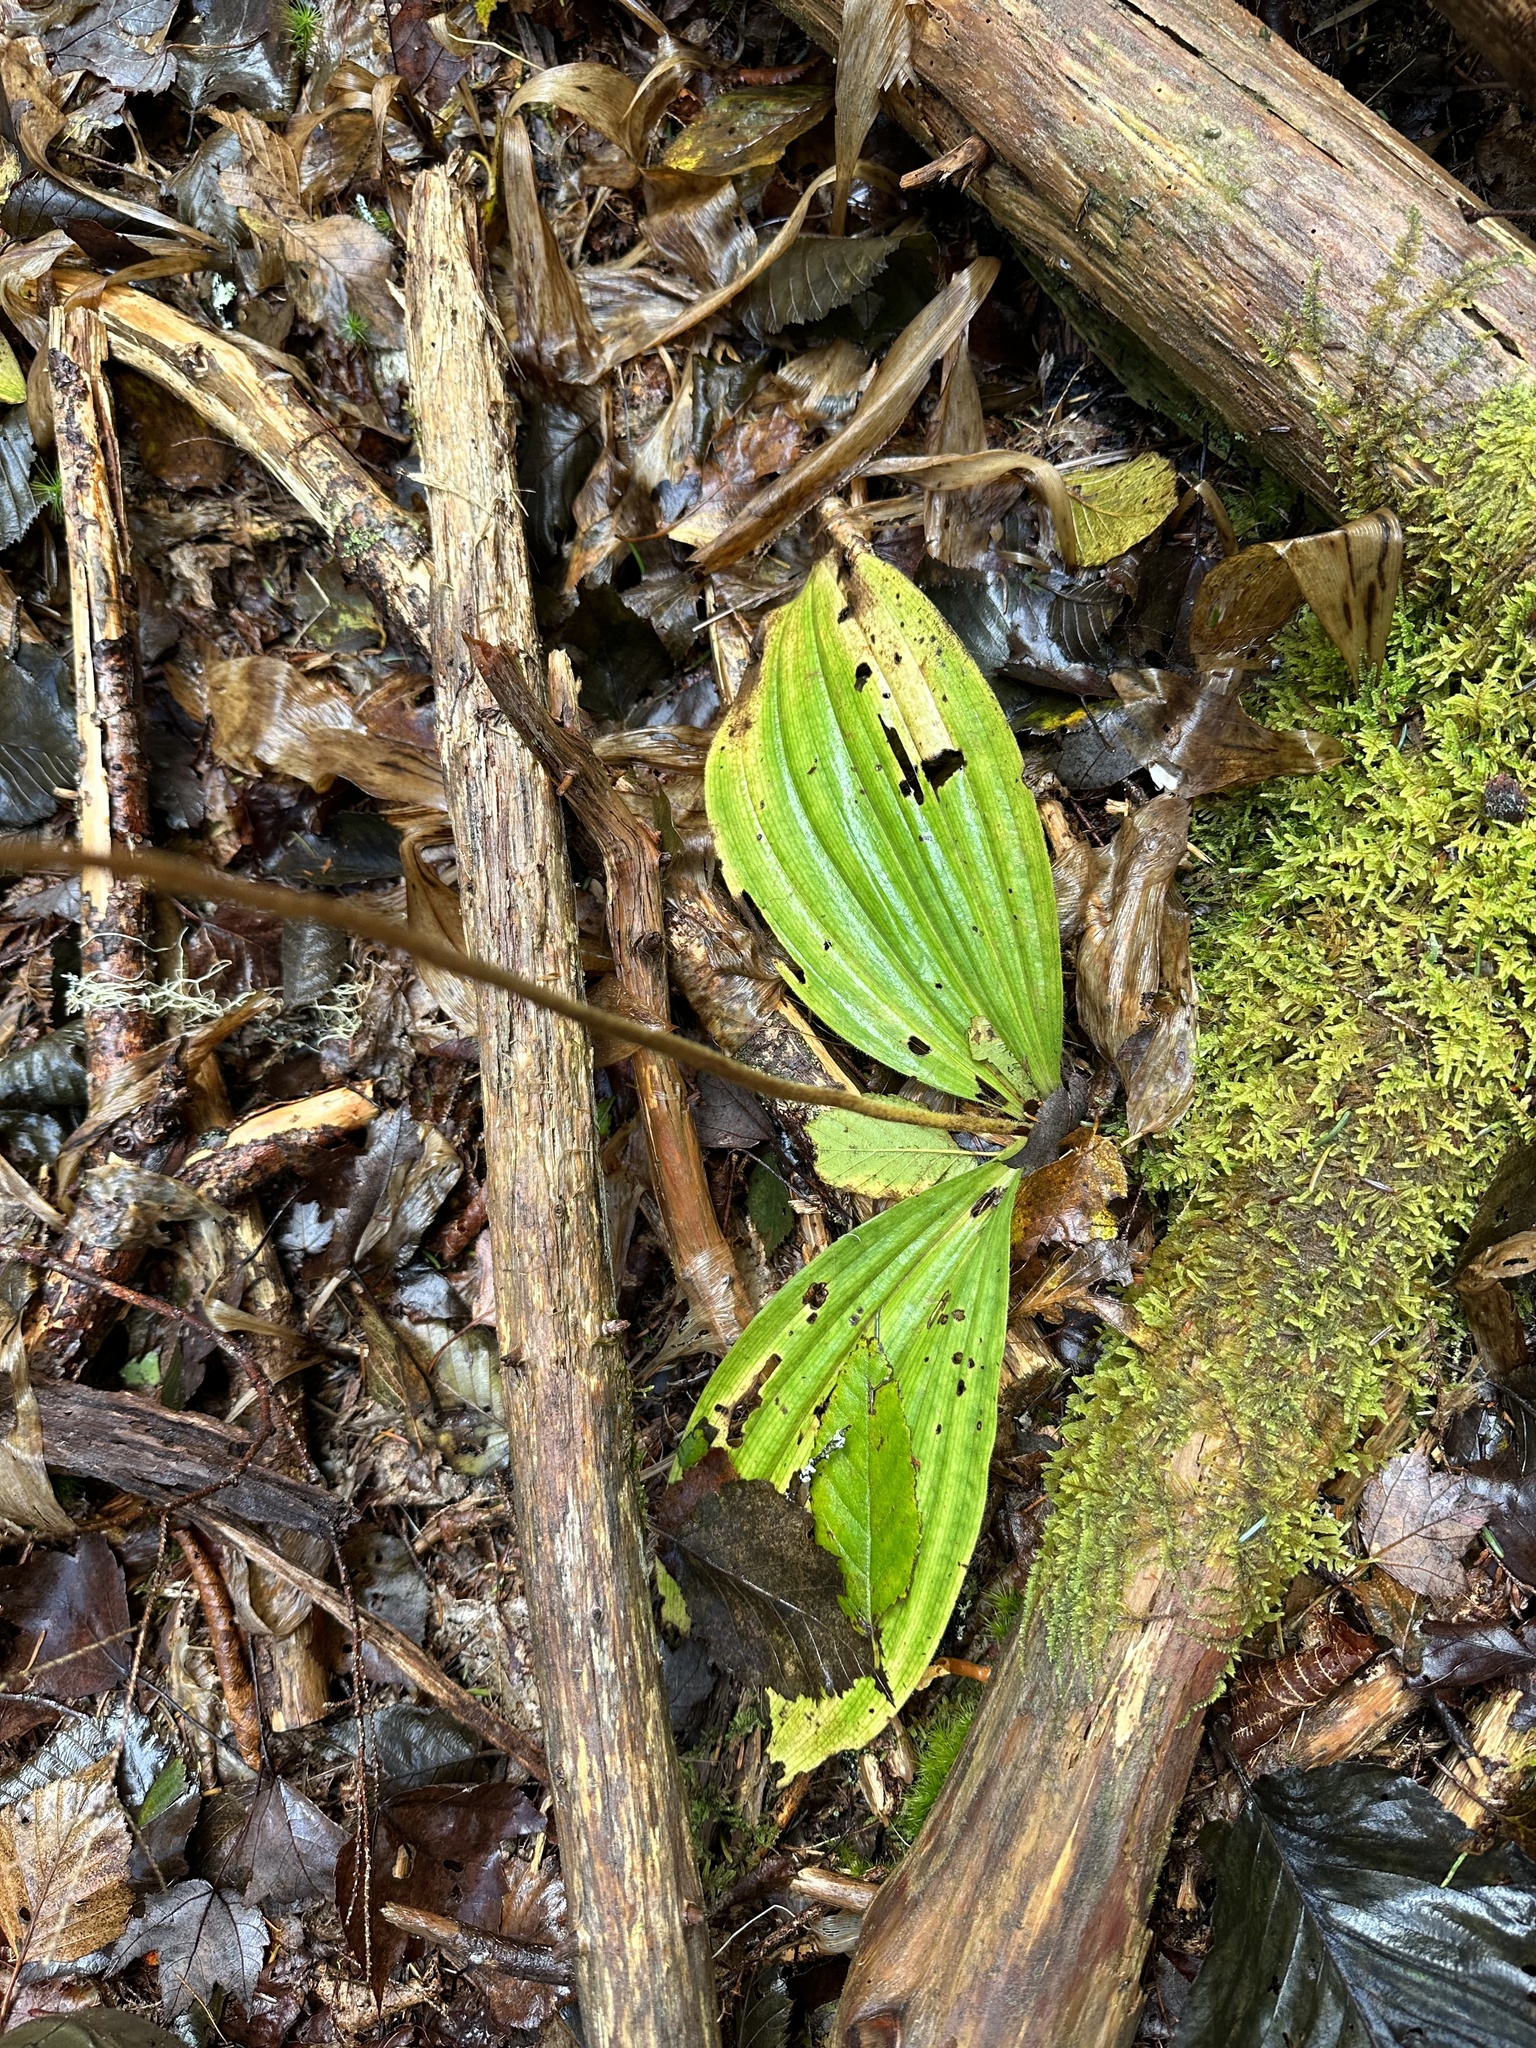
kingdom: Plantae
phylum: Tracheophyta
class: Liliopsida
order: Asparagales
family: Orchidaceae
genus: Cypripedium
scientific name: Cypripedium acaule
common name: Pink lady's-slipper
